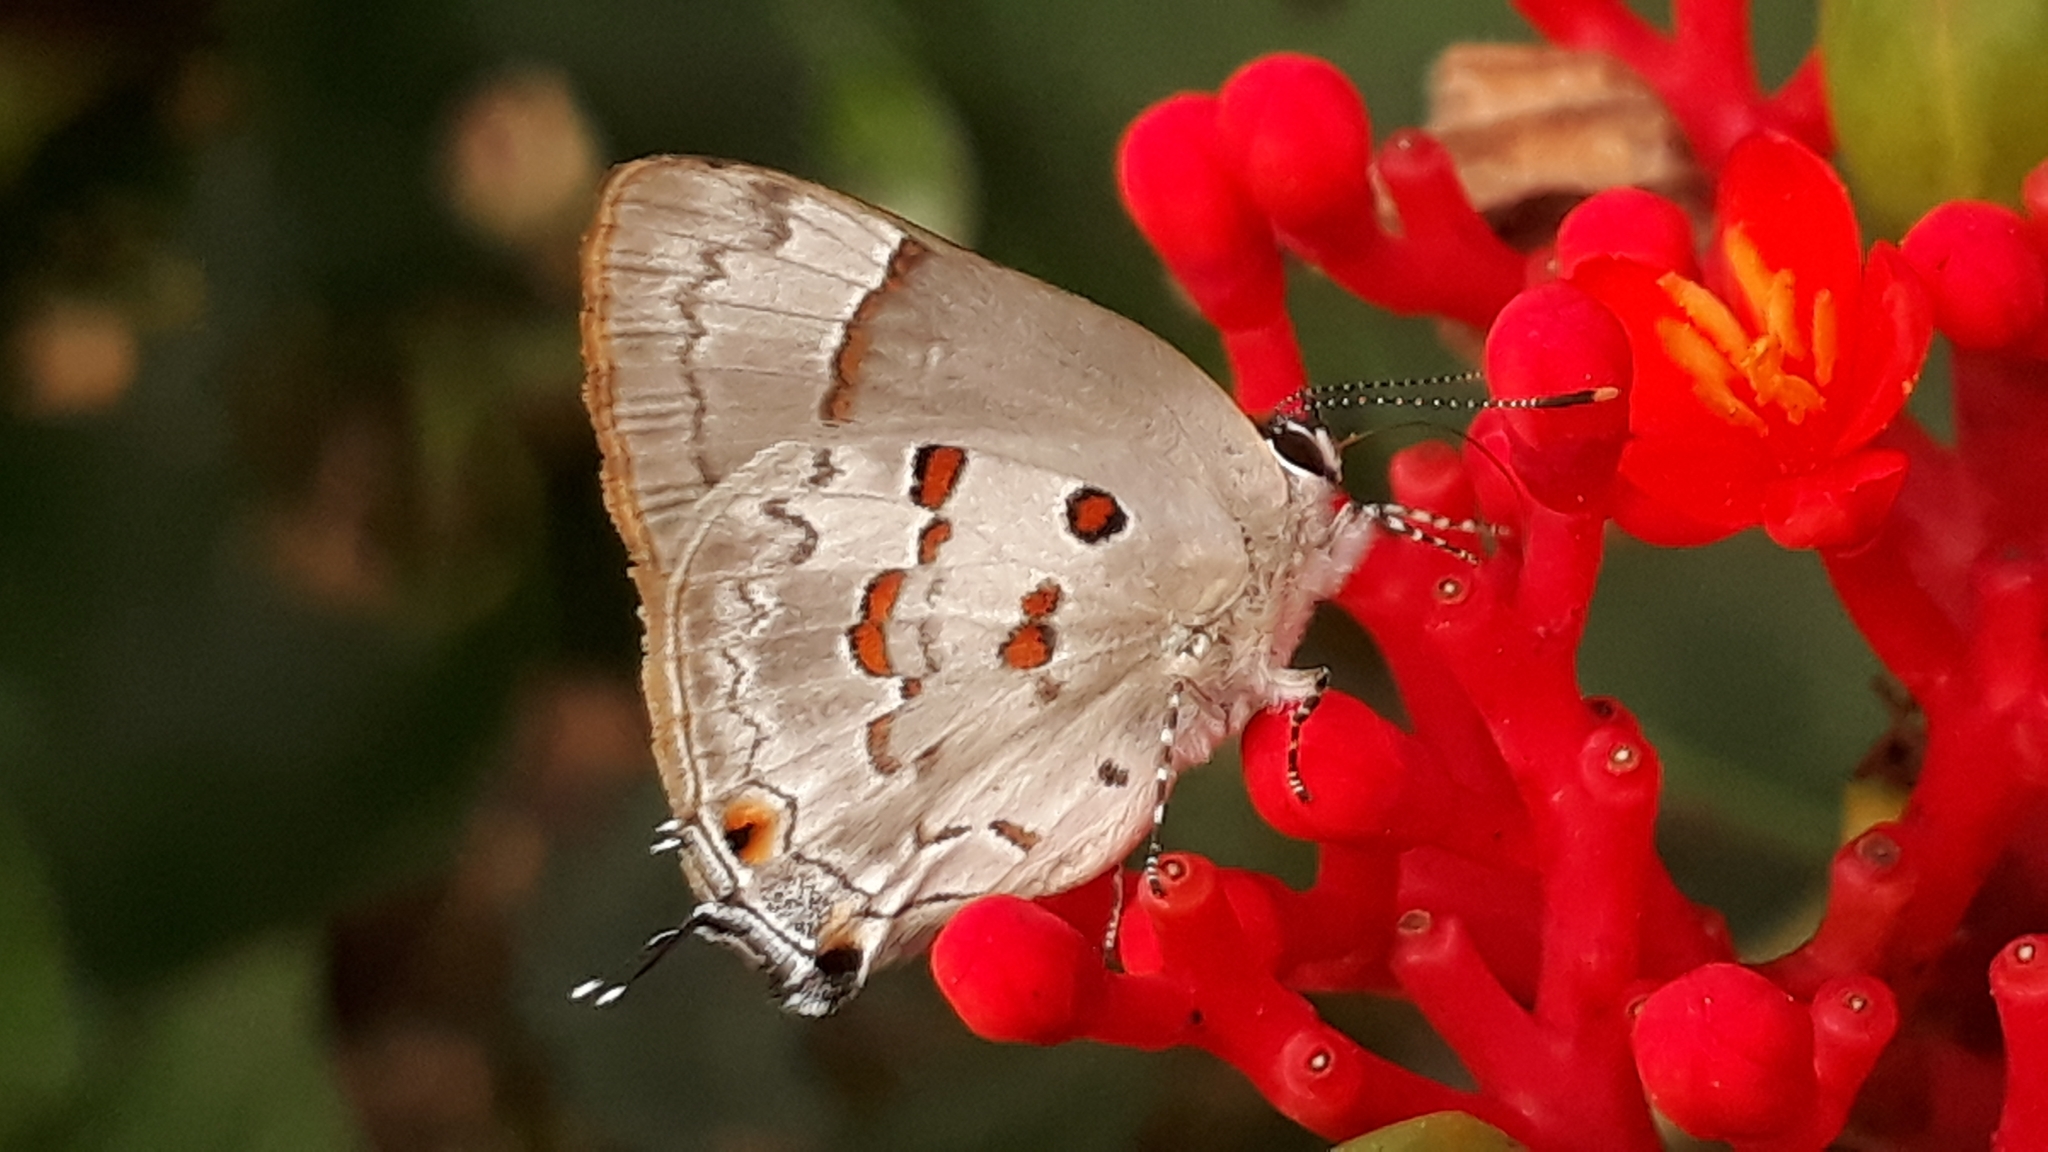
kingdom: Animalia
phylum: Arthropoda
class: Insecta
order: Lepidoptera
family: Lycaenidae
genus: Tmolus
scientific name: Tmolus echion
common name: Red-spotted hairstreak
